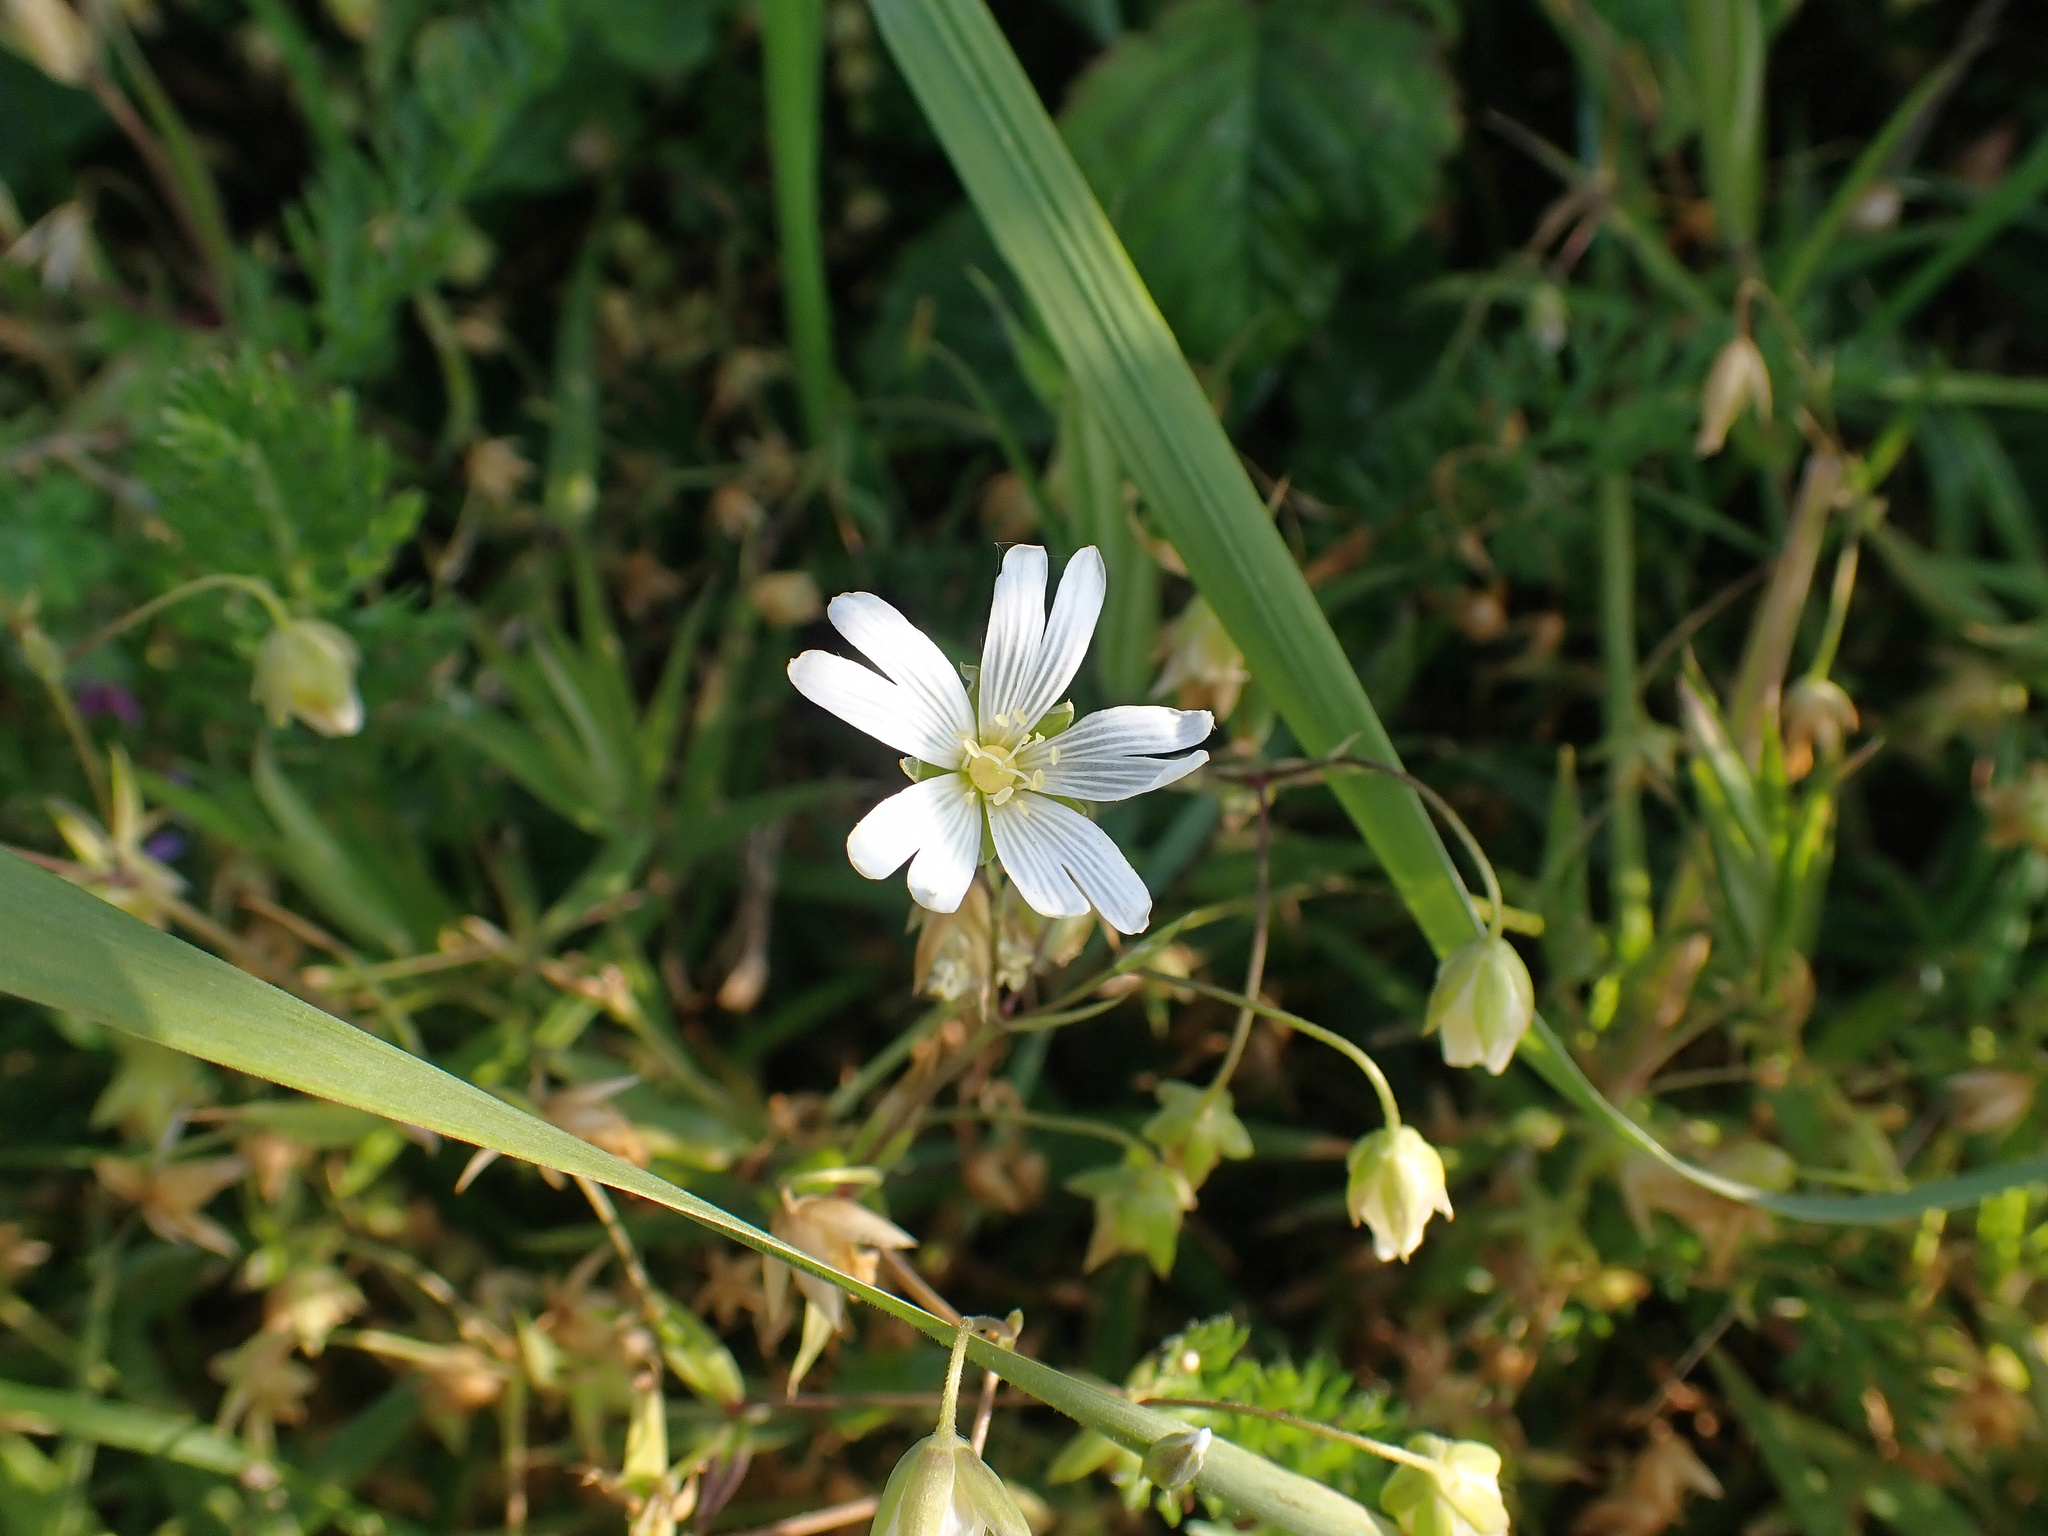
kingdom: Plantae
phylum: Tracheophyta
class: Magnoliopsida
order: Caryophyllales
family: Caryophyllaceae
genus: Rabelera
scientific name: Rabelera holostea
